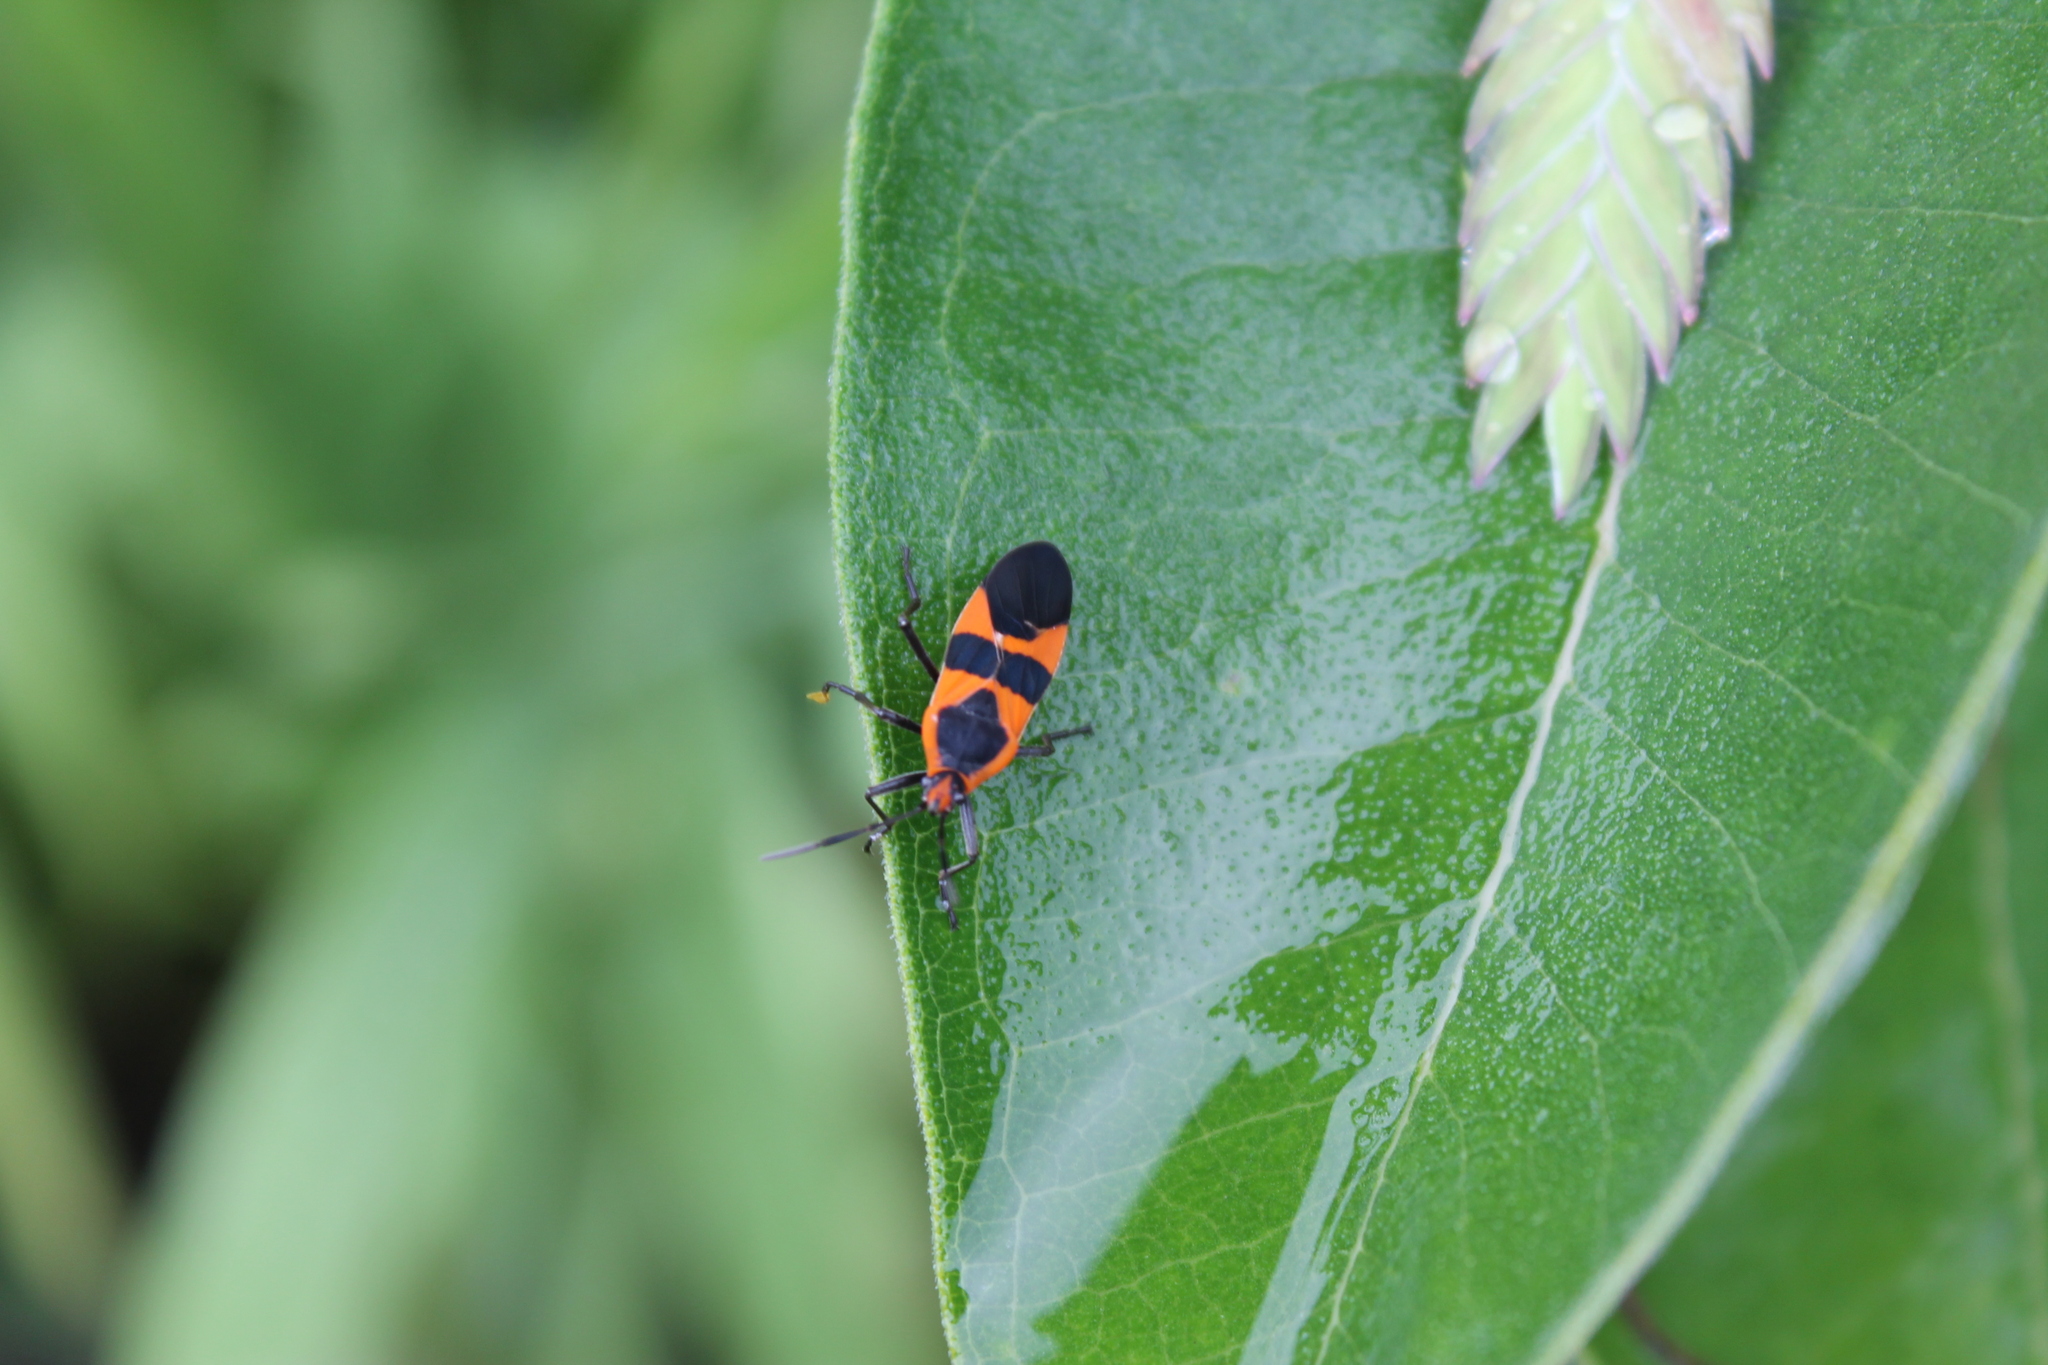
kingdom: Animalia
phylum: Arthropoda
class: Insecta
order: Hemiptera
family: Lygaeidae
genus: Oncopeltus
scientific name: Oncopeltus fasciatus
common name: Large milkweed bug
